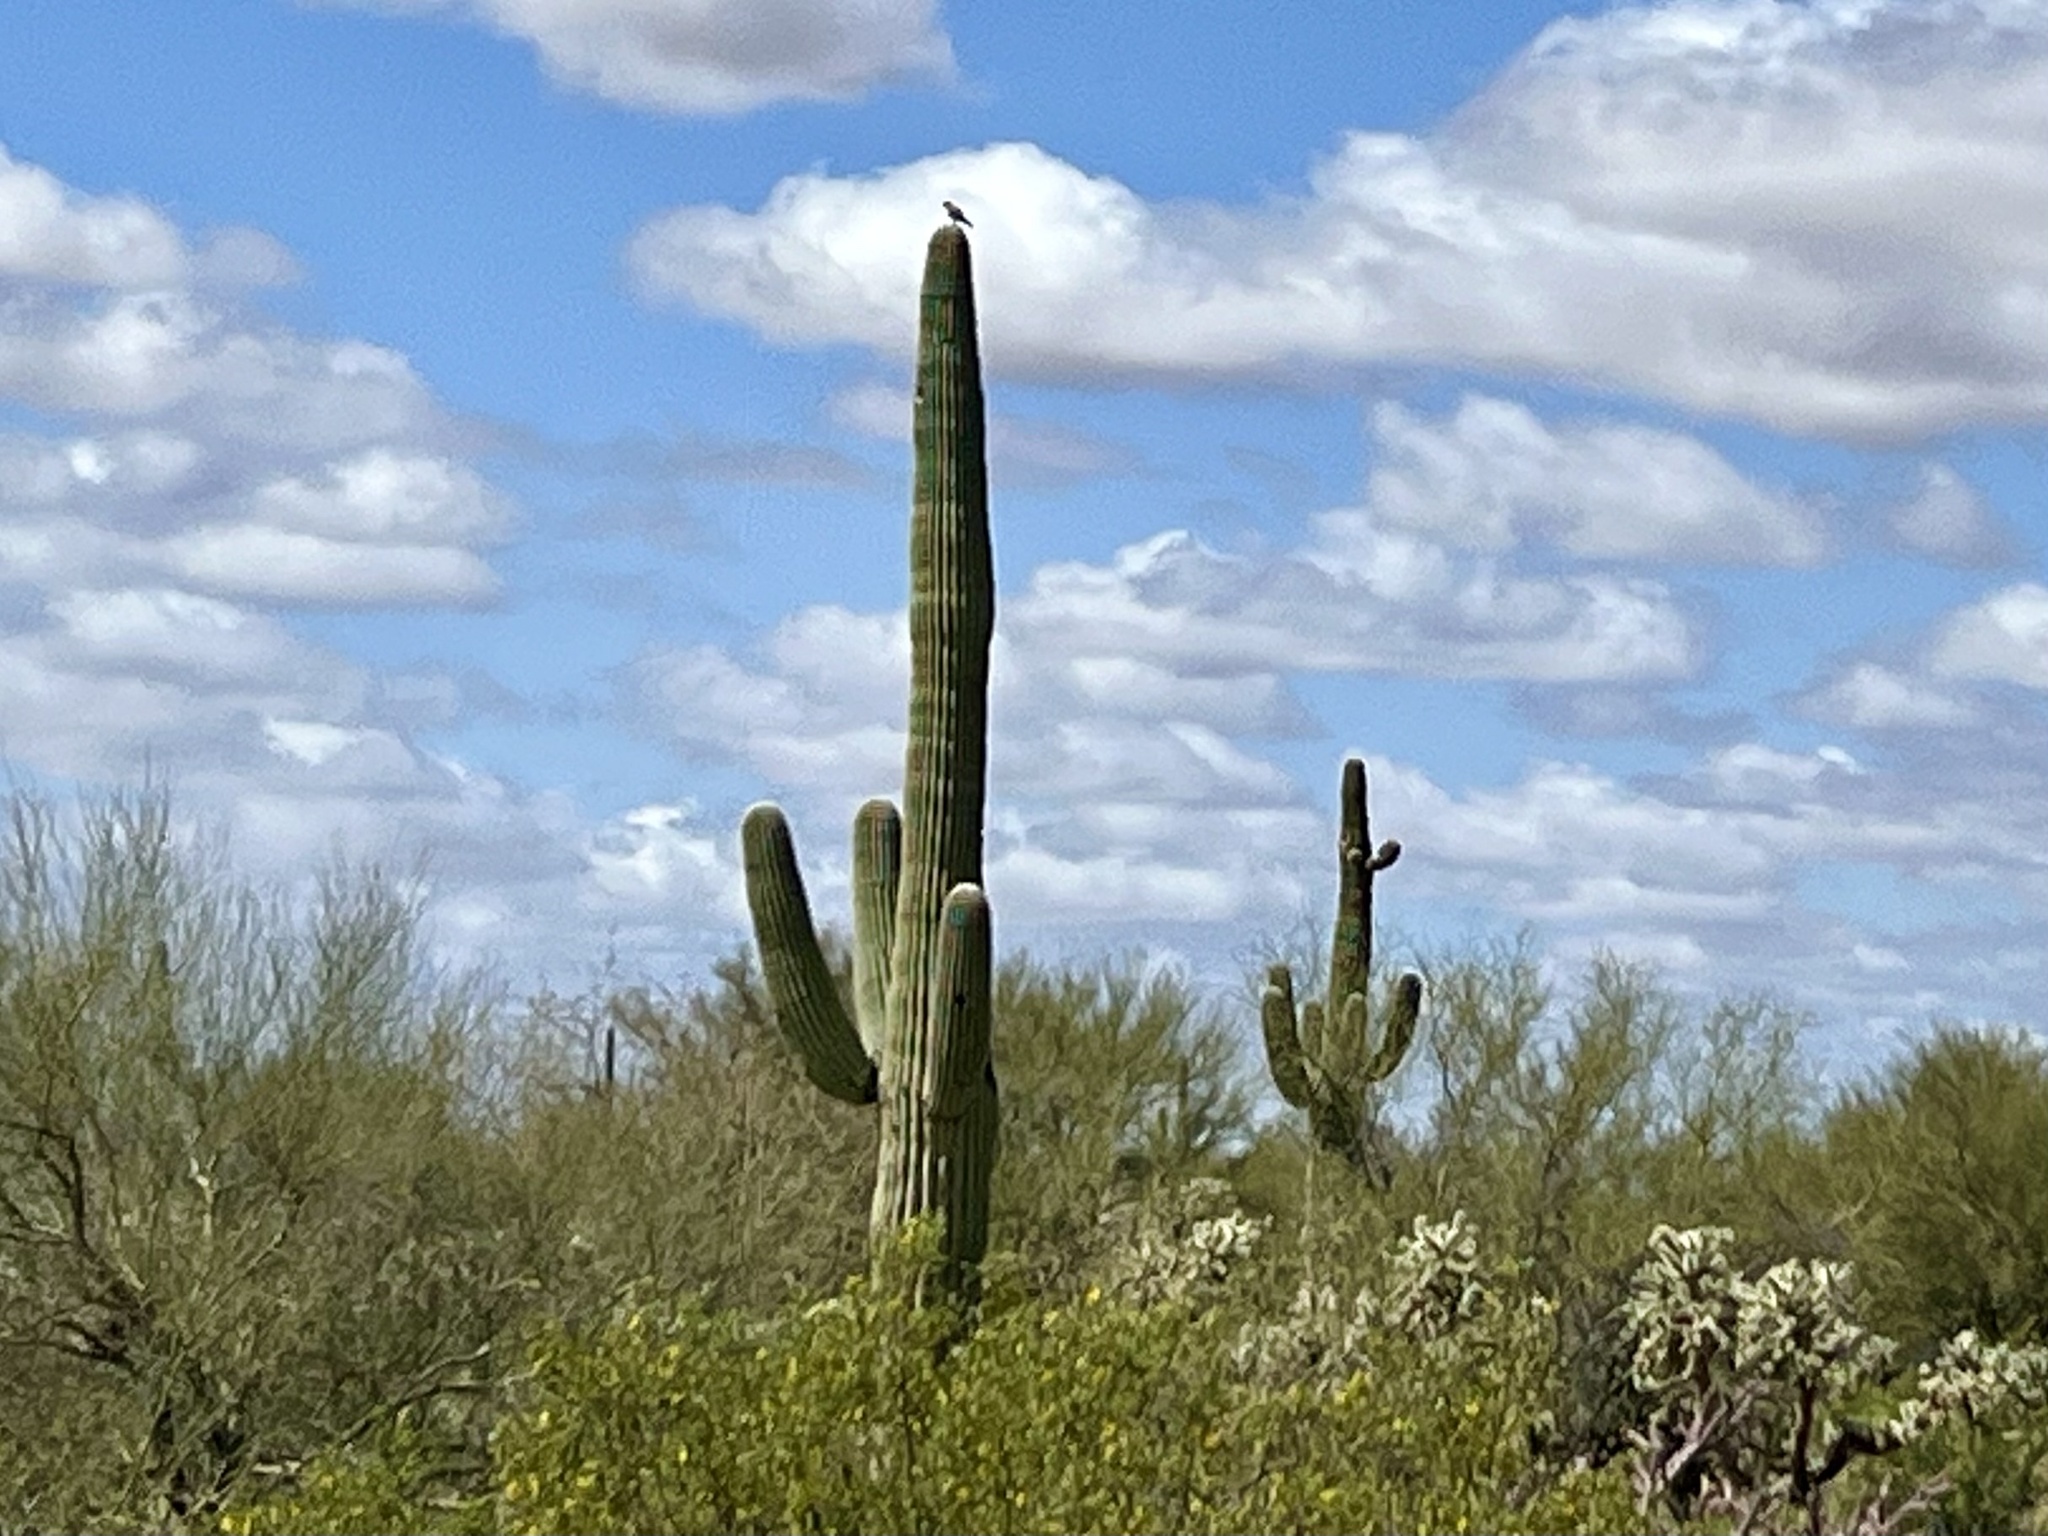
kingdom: Plantae
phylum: Tracheophyta
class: Magnoliopsida
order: Caryophyllales
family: Cactaceae
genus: Carnegiea
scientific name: Carnegiea gigantea
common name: Saguaro
